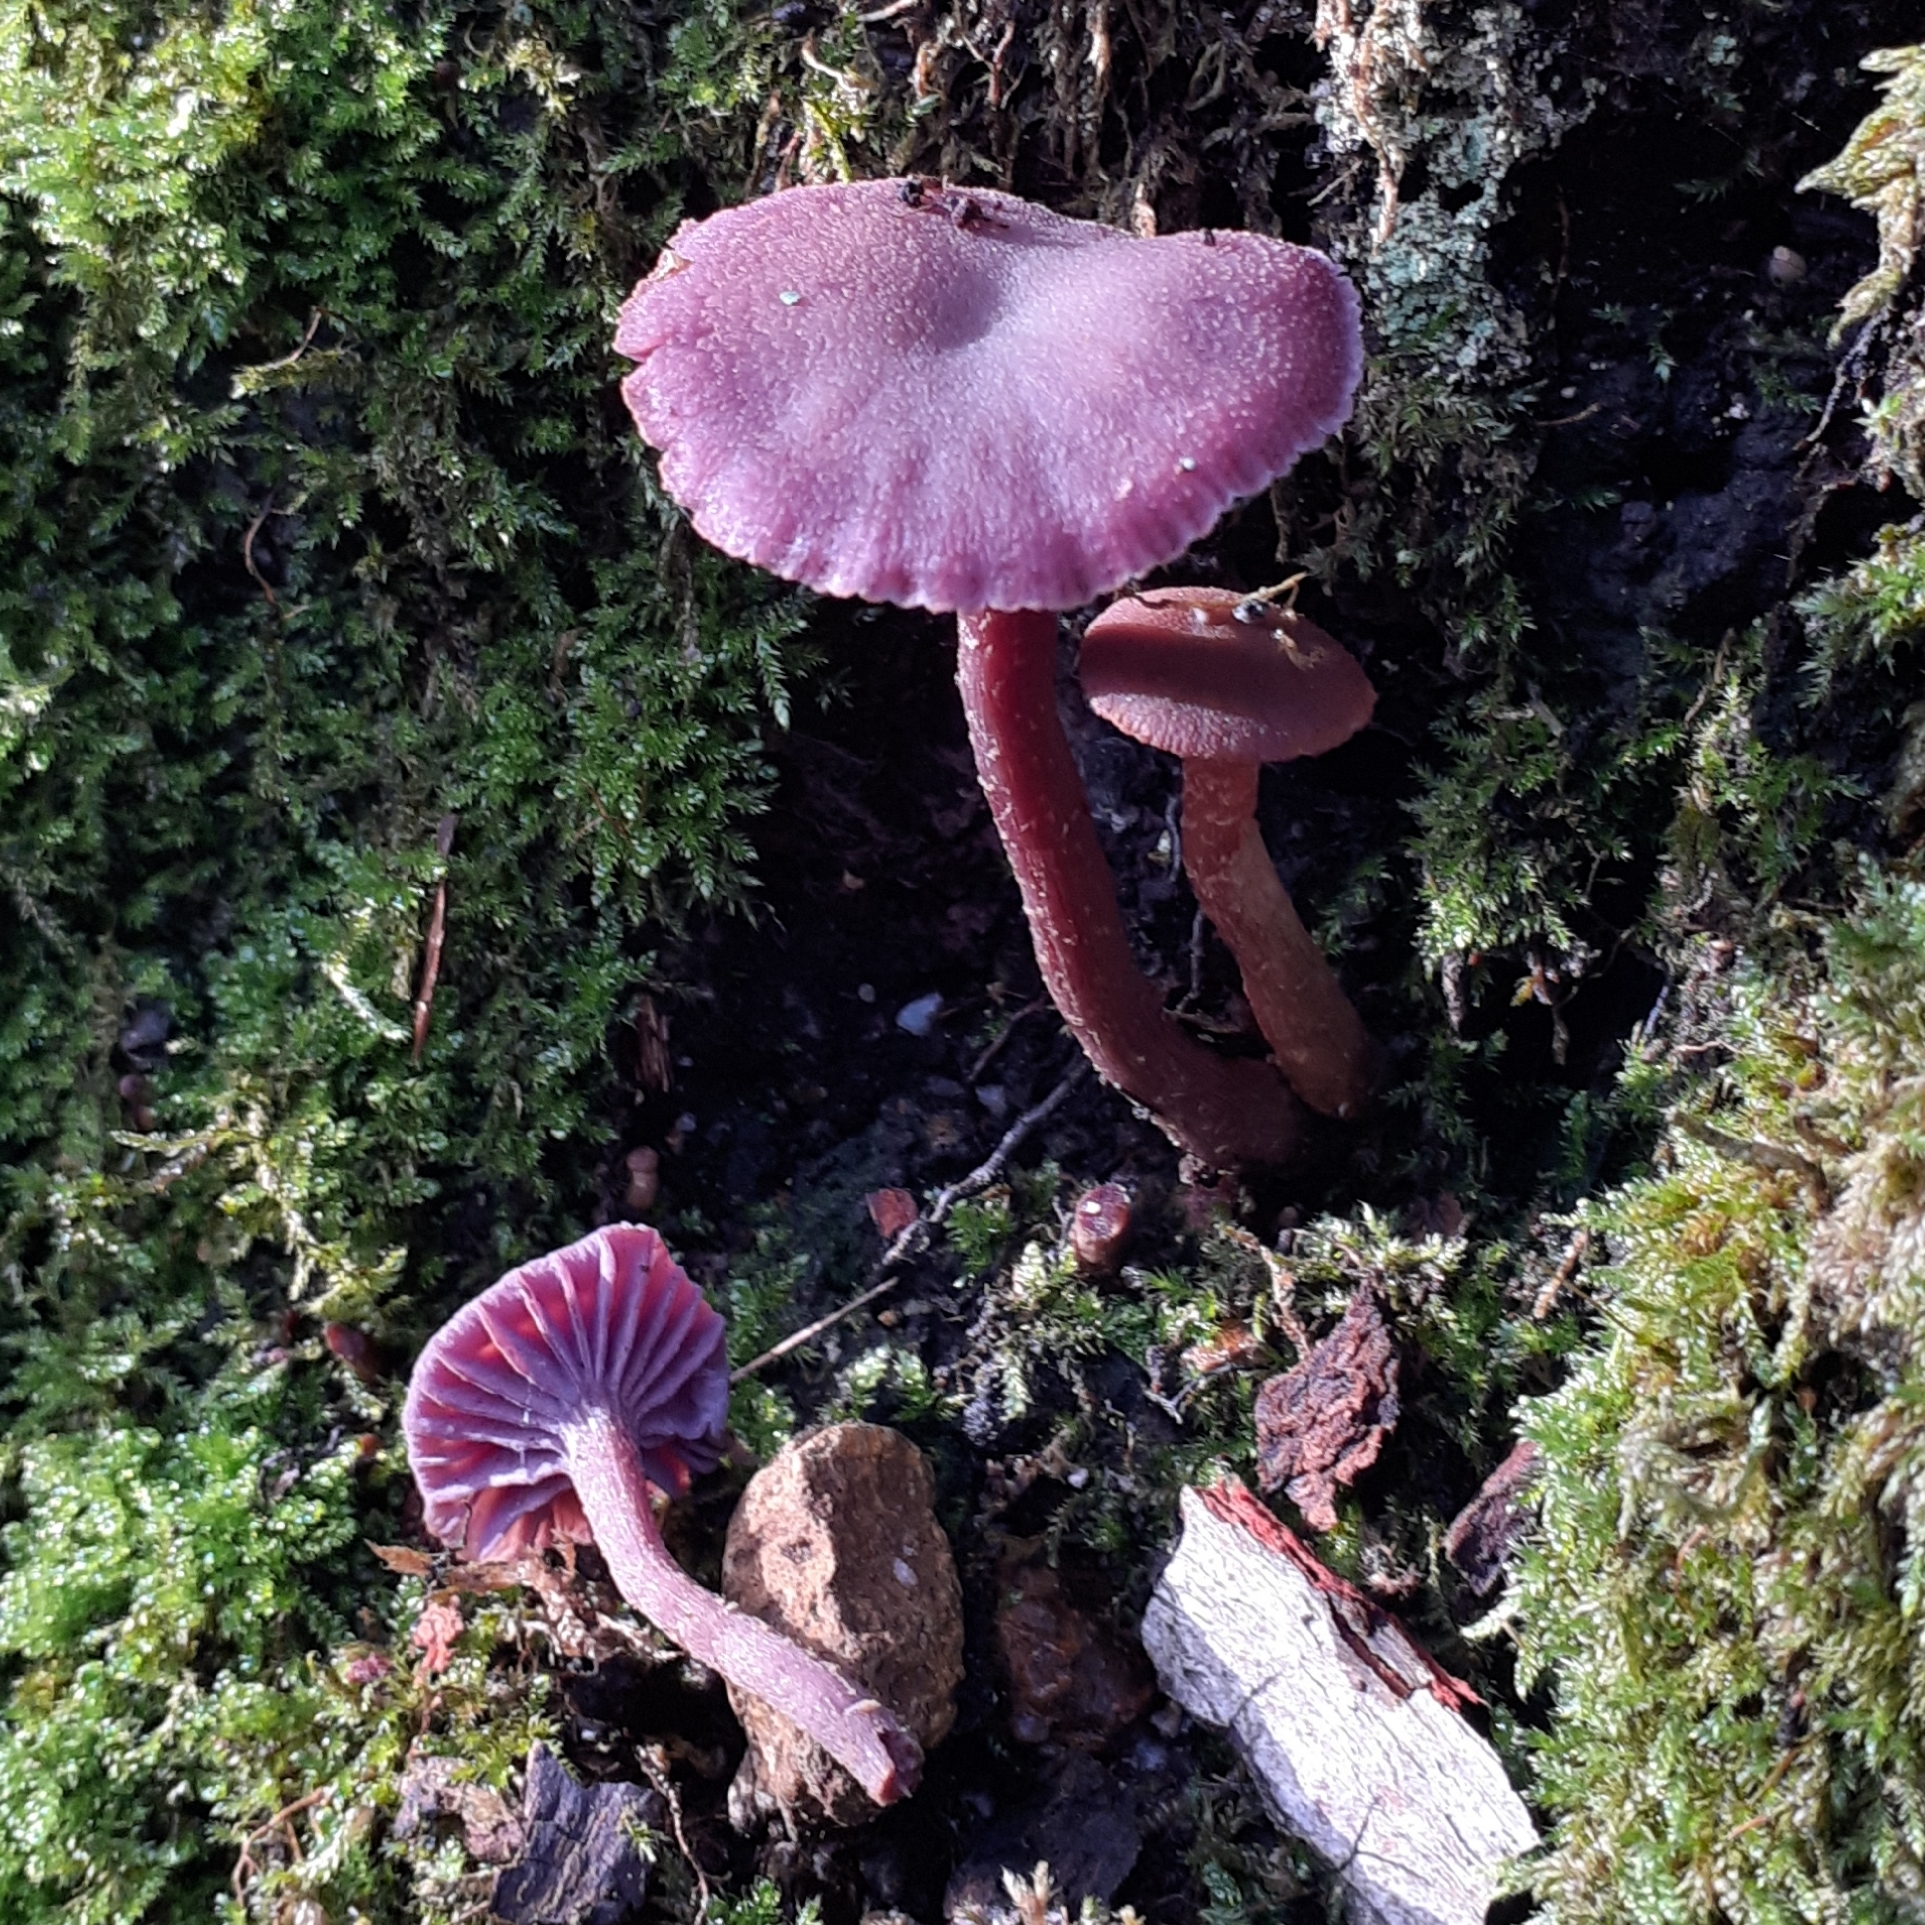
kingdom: Fungi
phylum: Basidiomycota
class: Agaricomycetes
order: Agaricales
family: Hydnangiaceae
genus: Laccaria
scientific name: Laccaria amethystina
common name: Amethyst deceiver
